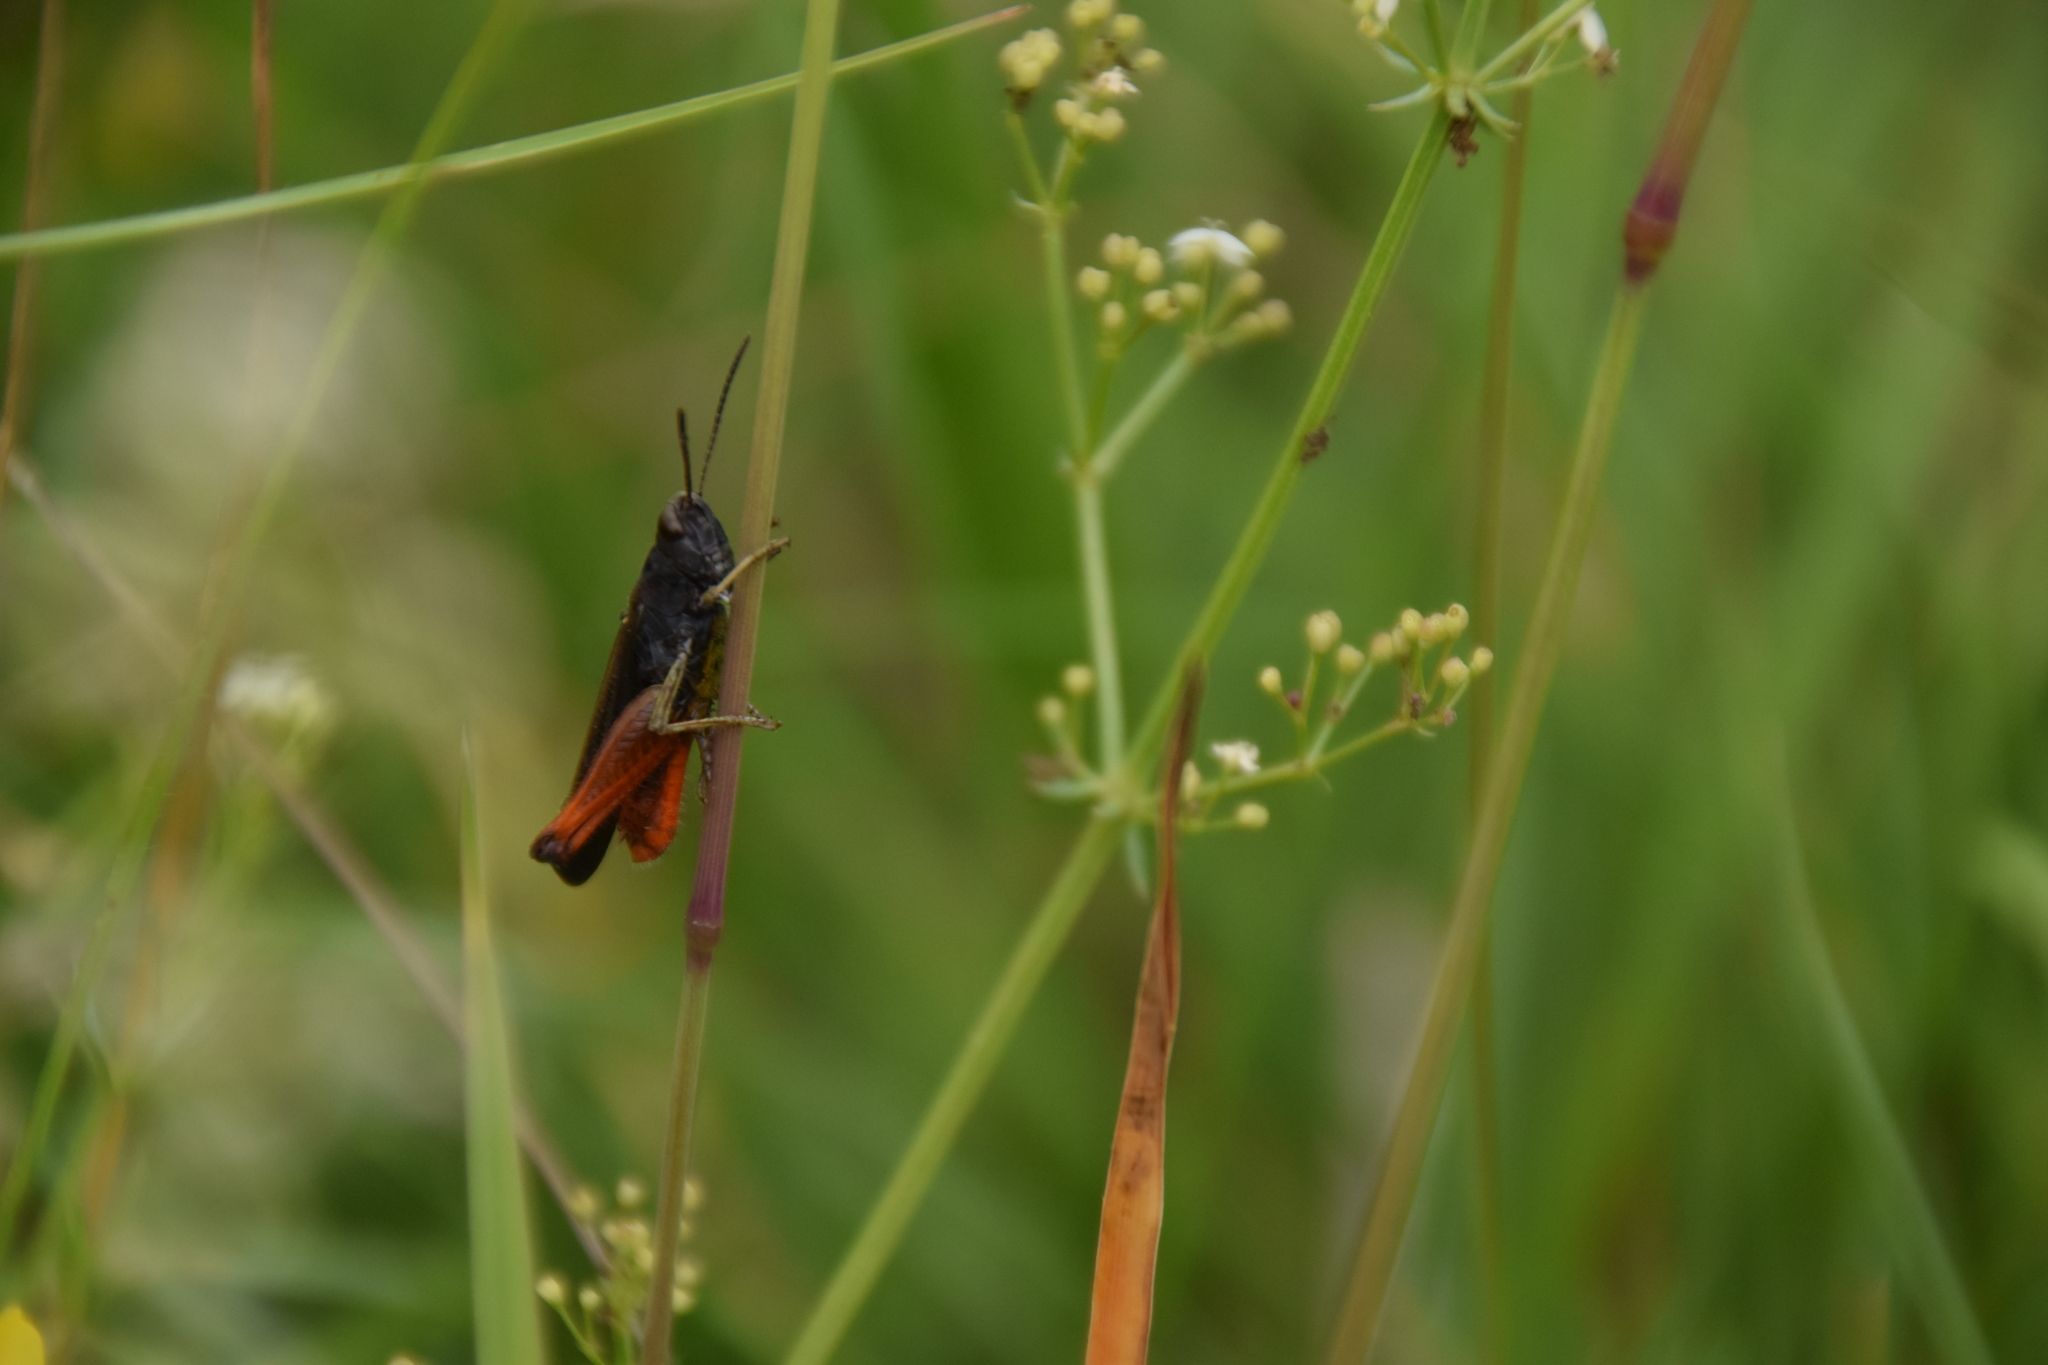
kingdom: Animalia
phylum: Arthropoda
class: Insecta
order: Orthoptera
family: Acrididae
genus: Omocestus
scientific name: Omocestus rufipes
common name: Woodland grasshopper
